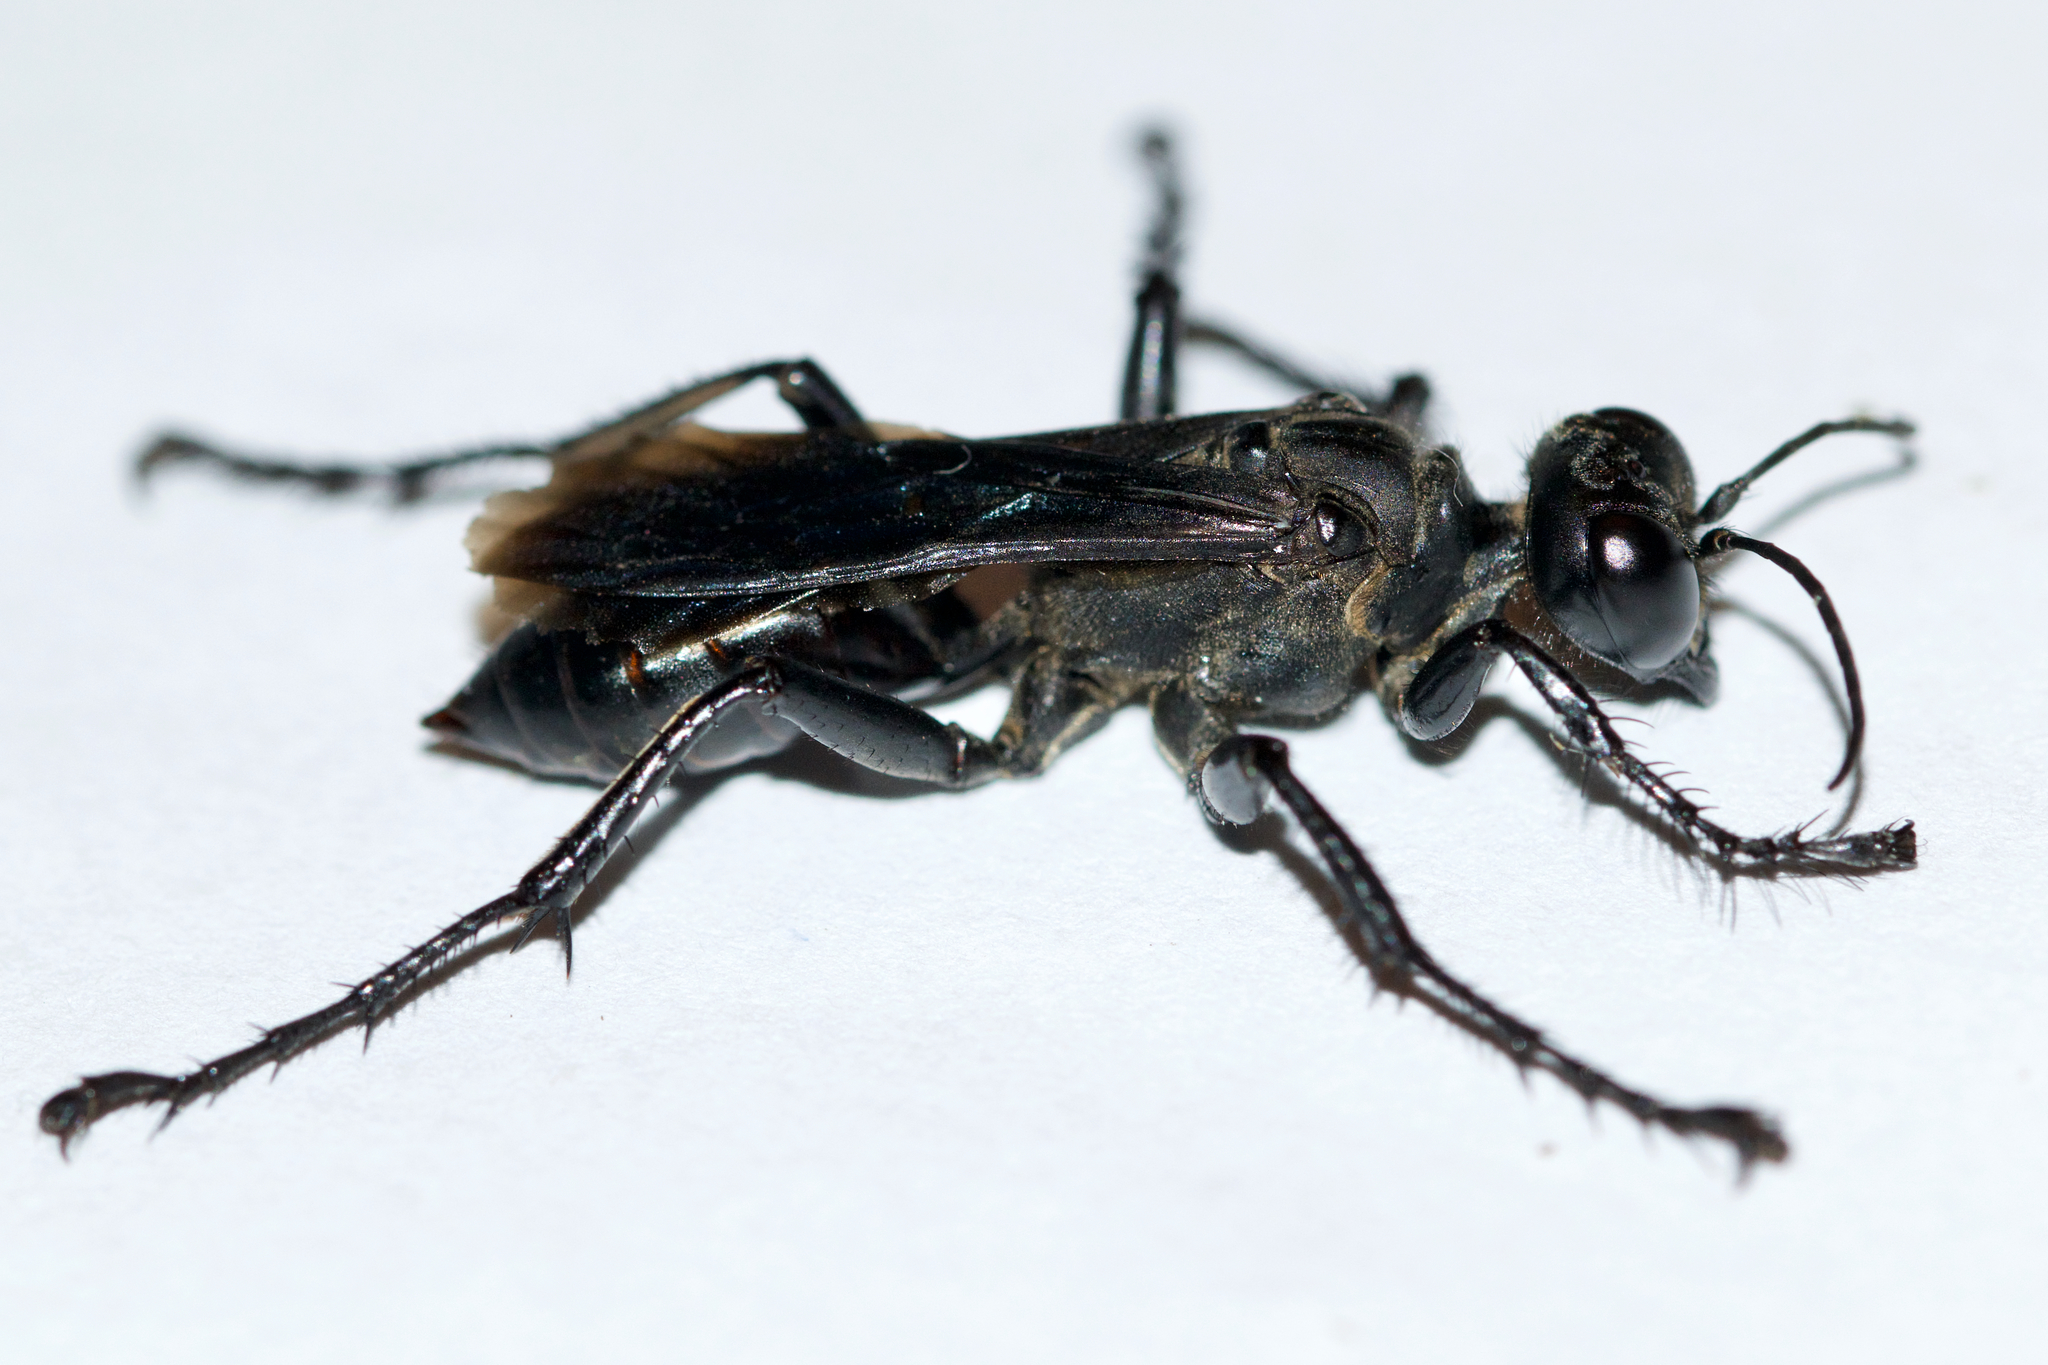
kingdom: Animalia
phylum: Arthropoda
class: Insecta
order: Hymenoptera
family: Sphecidae
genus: Prionyx
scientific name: Prionyx atratus
